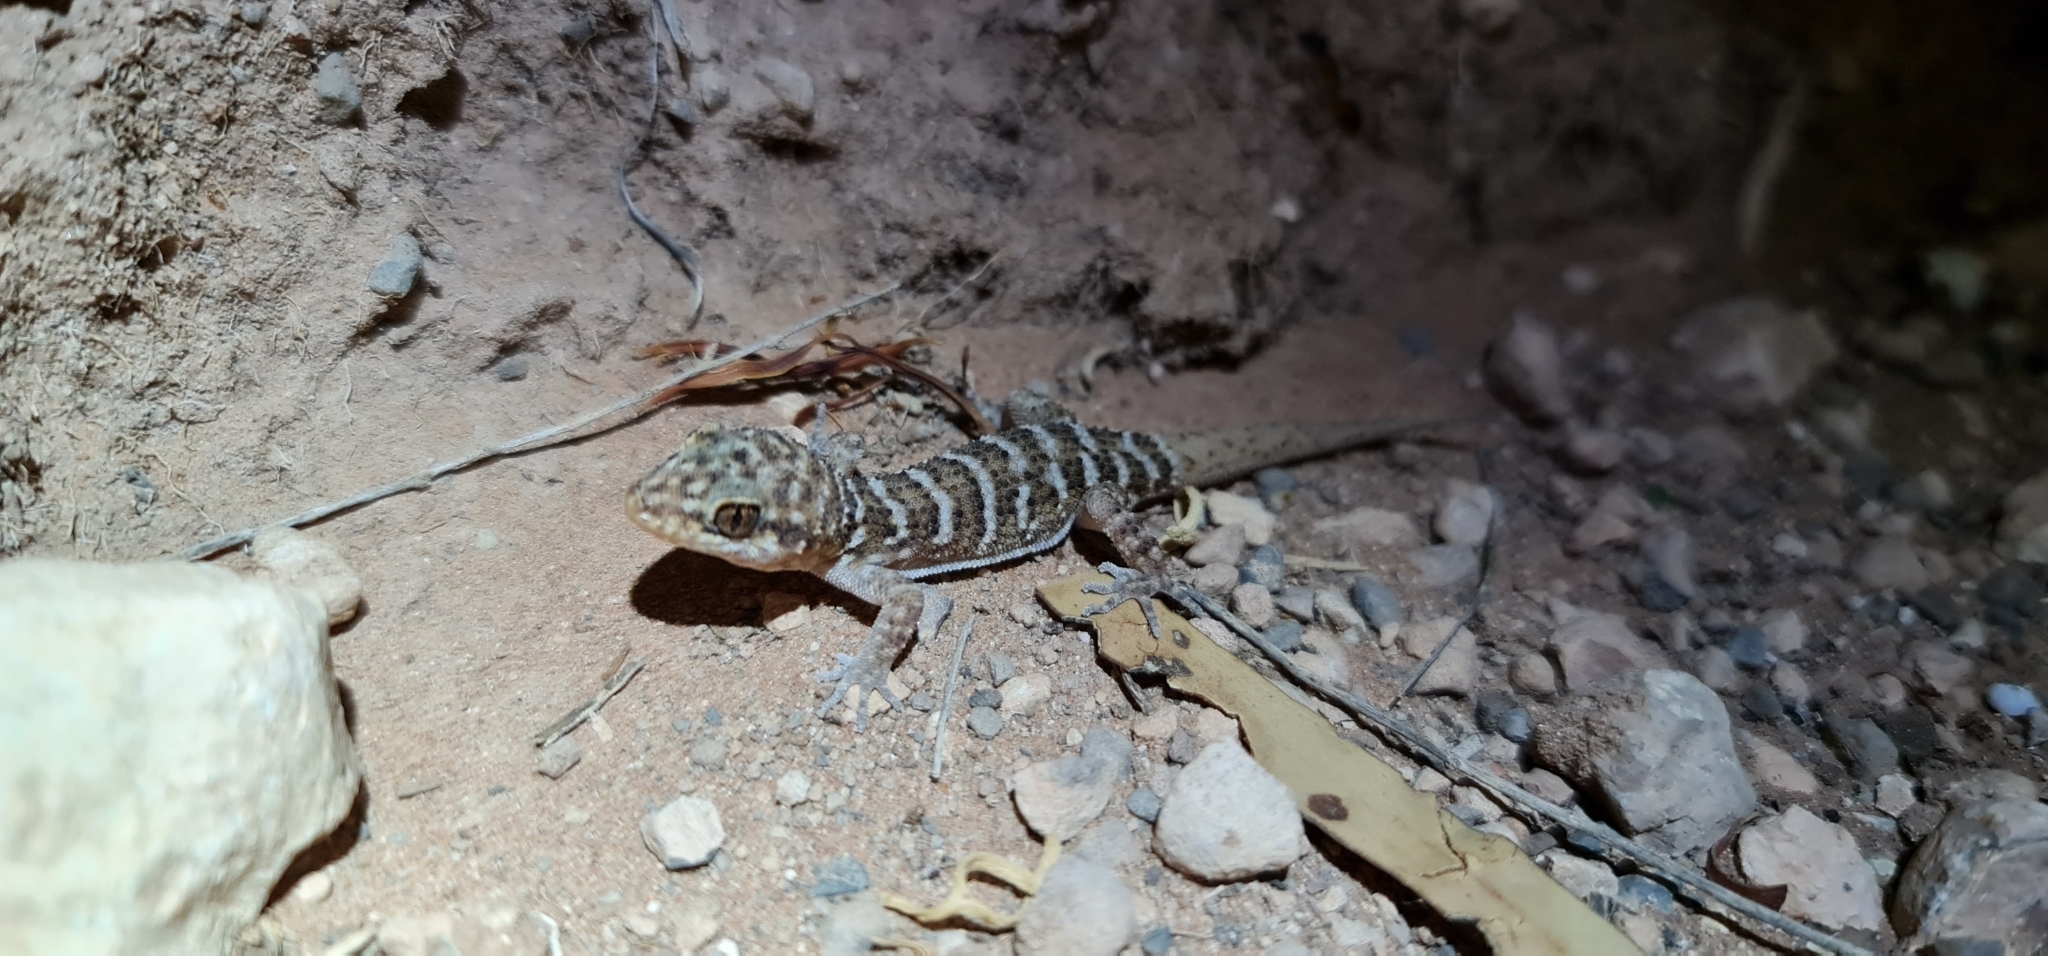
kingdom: Animalia
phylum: Chordata
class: Squamata
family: Gekkonidae
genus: Heteronotia
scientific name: Heteronotia binoei
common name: Bynoe's gecko
